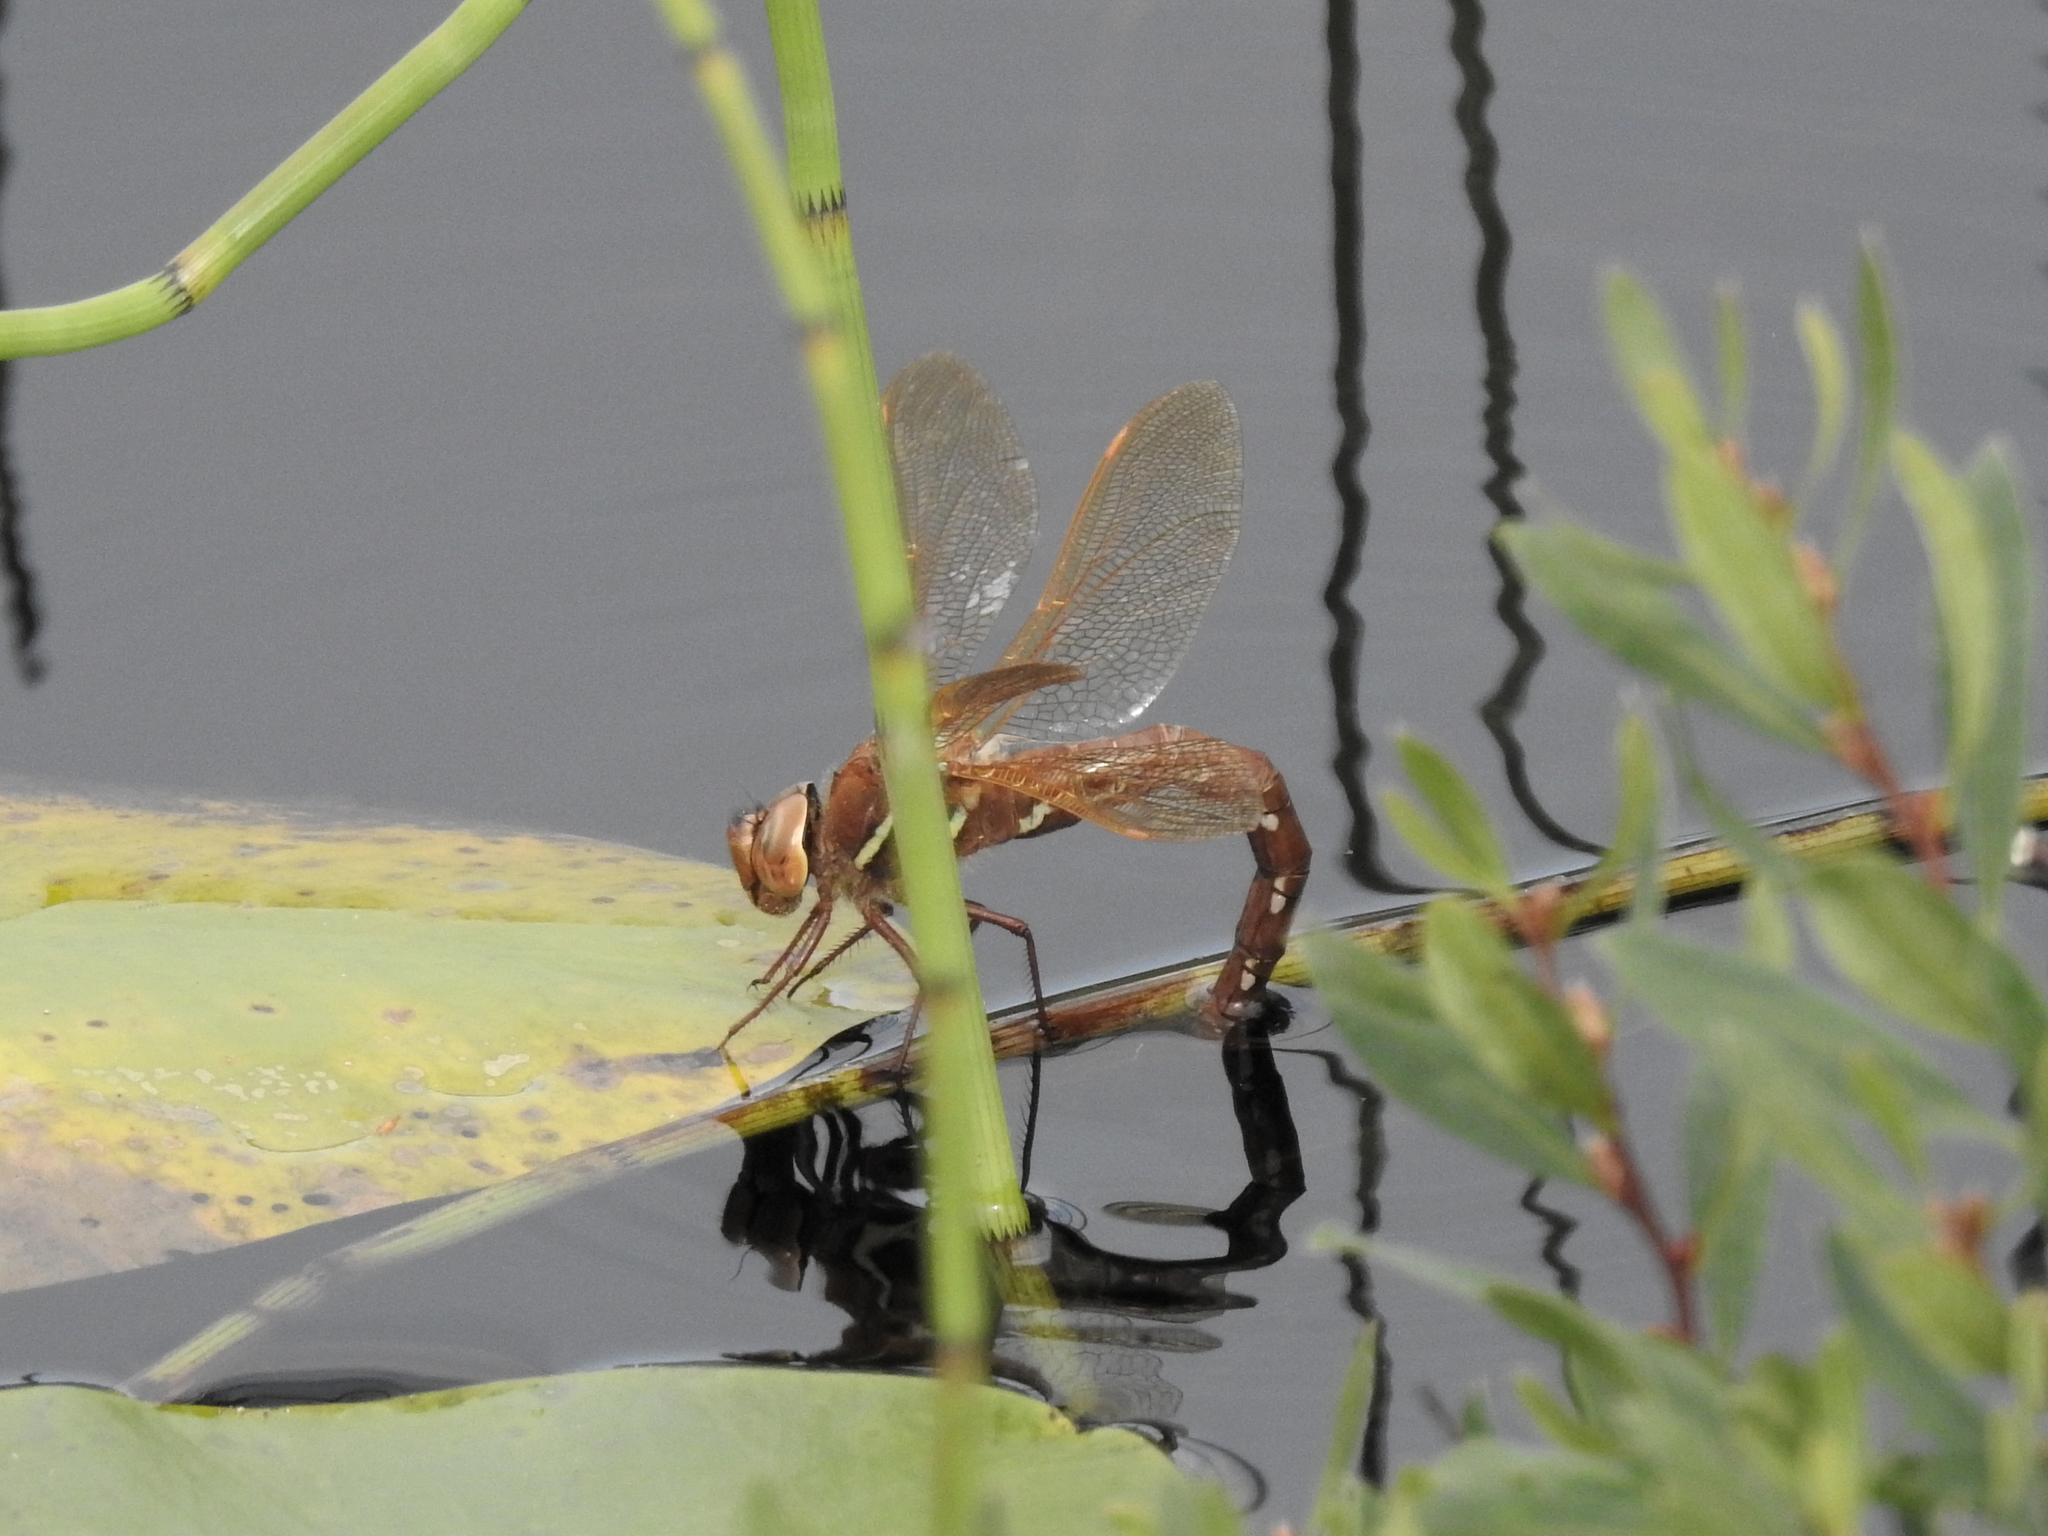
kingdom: Animalia
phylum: Arthropoda
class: Insecta
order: Odonata
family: Aeshnidae
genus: Aeshna
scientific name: Aeshna grandis
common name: Brown hawker
